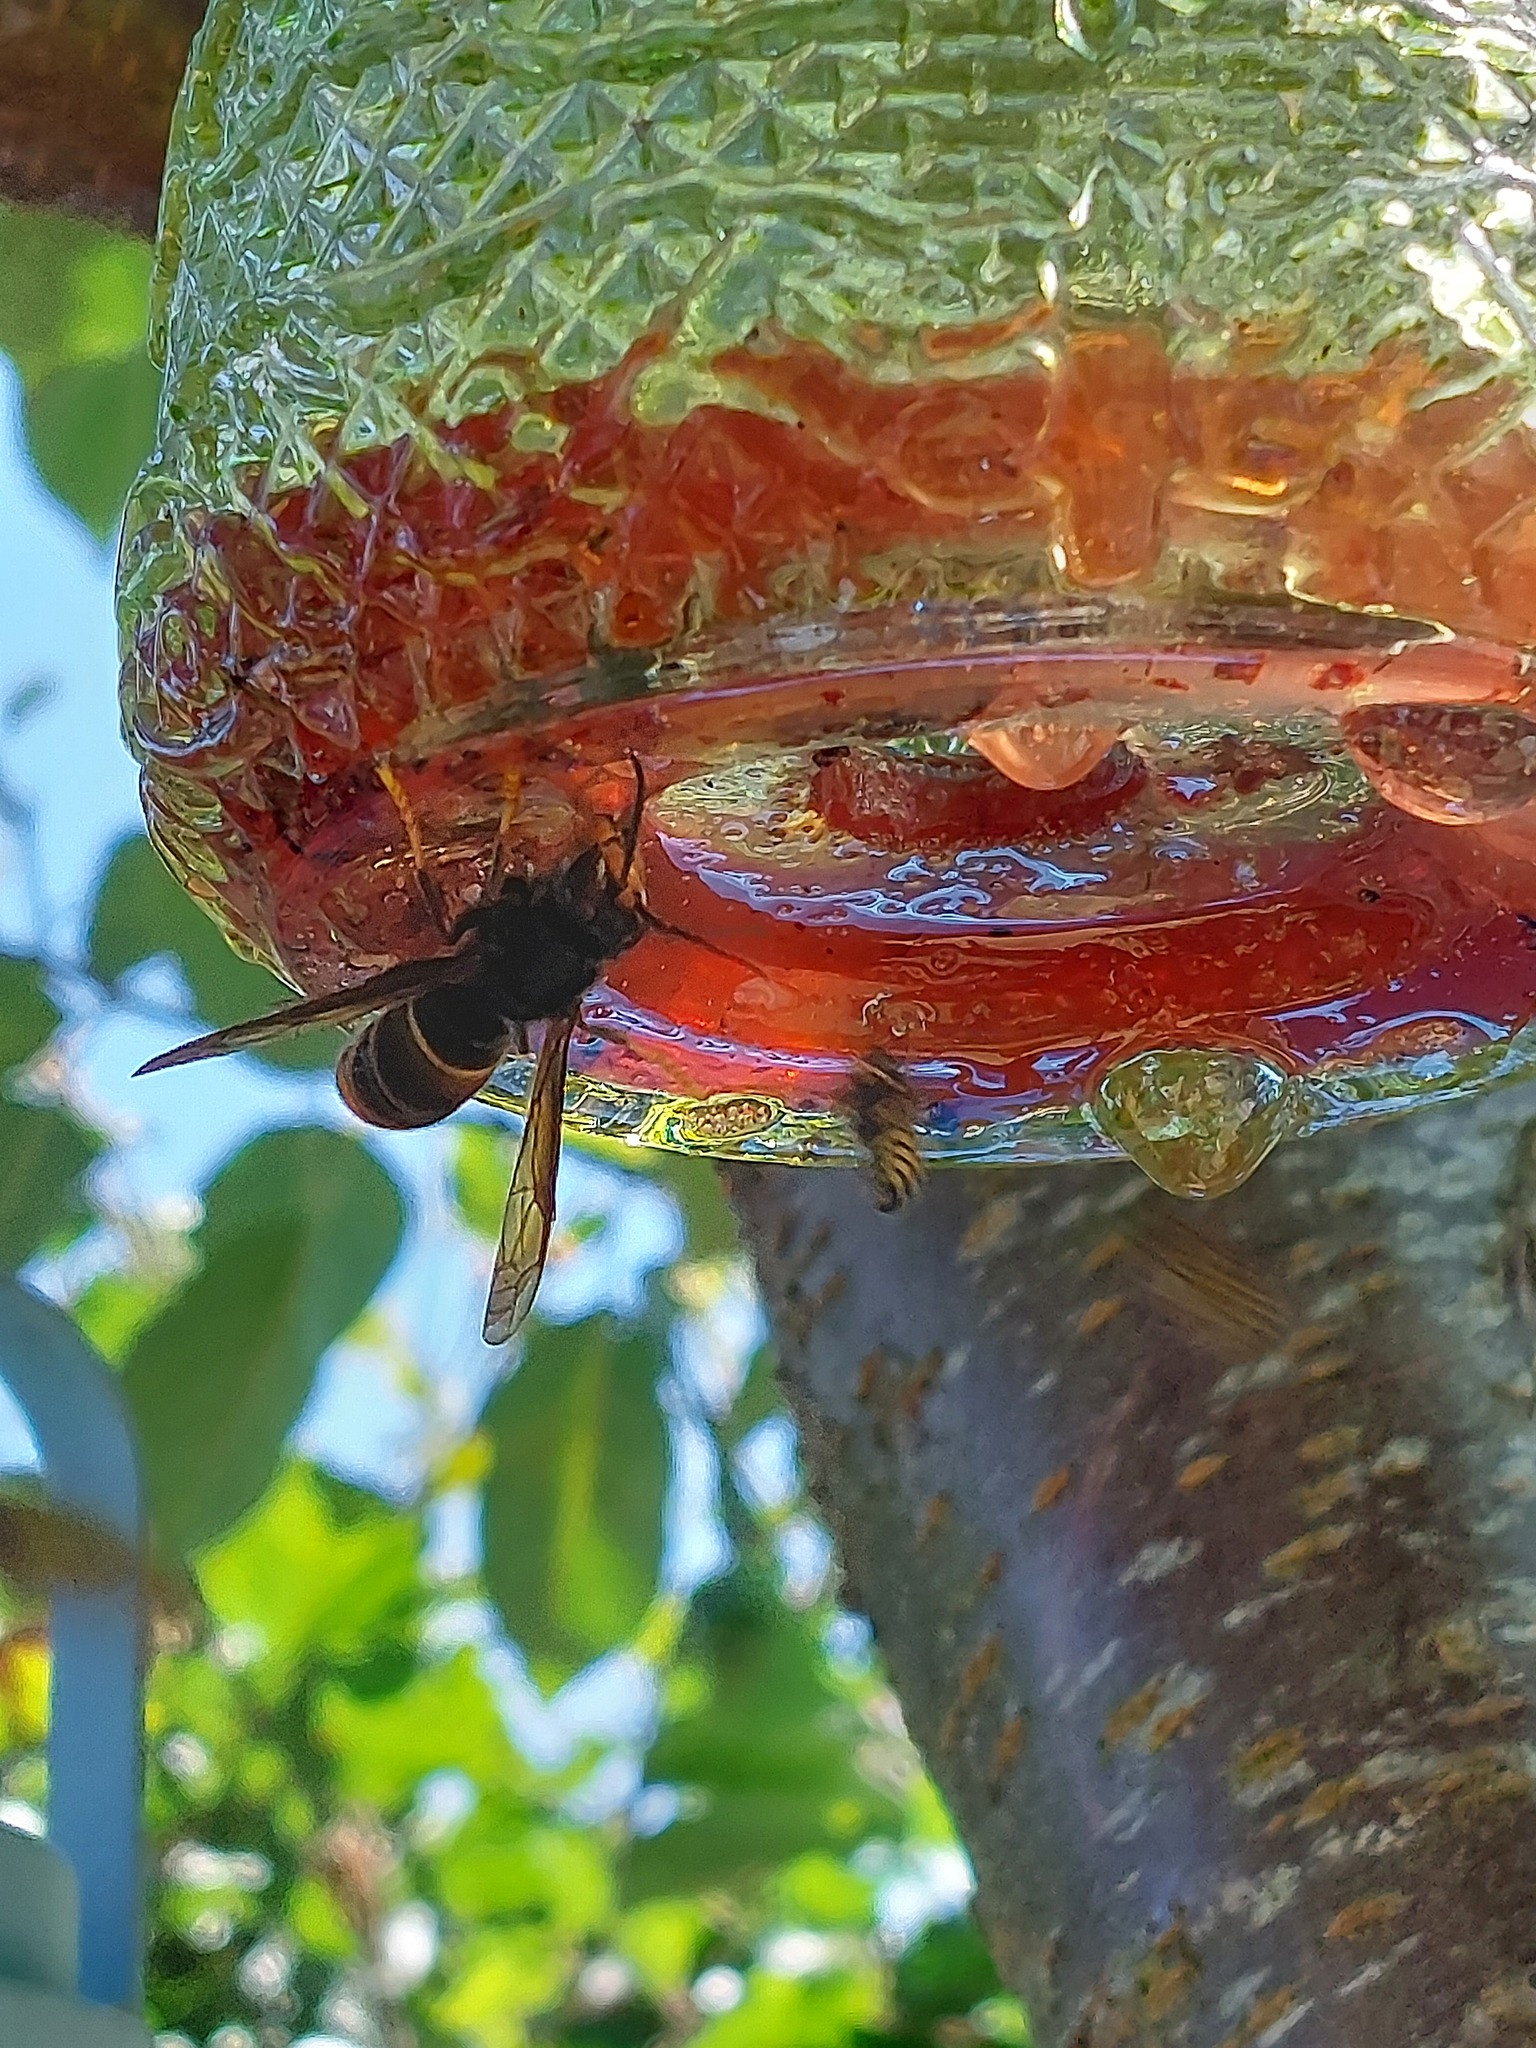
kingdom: Animalia
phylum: Arthropoda
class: Insecta
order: Hymenoptera
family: Vespidae
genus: Vespa
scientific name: Vespa velutina
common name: Asian hornet
